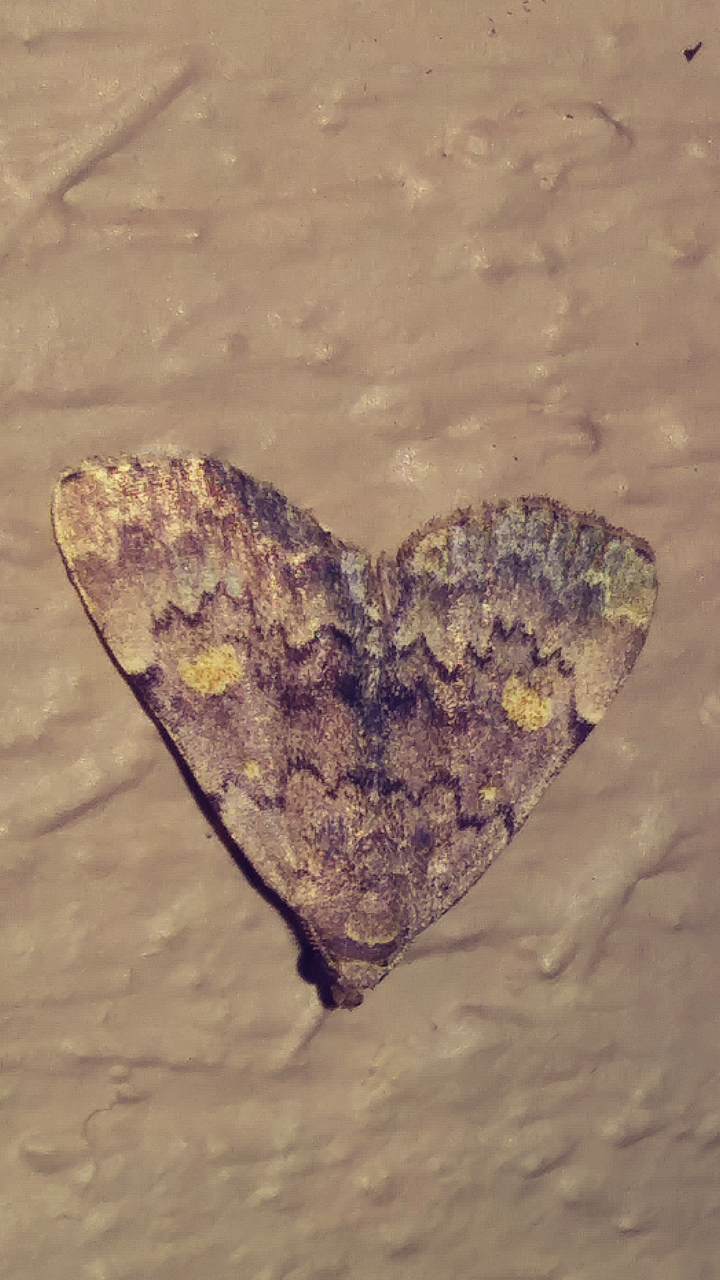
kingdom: Animalia
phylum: Arthropoda
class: Insecta
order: Lepidoptera
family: Erebidae
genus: Idia
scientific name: Idia aemula
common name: Common idia moth
